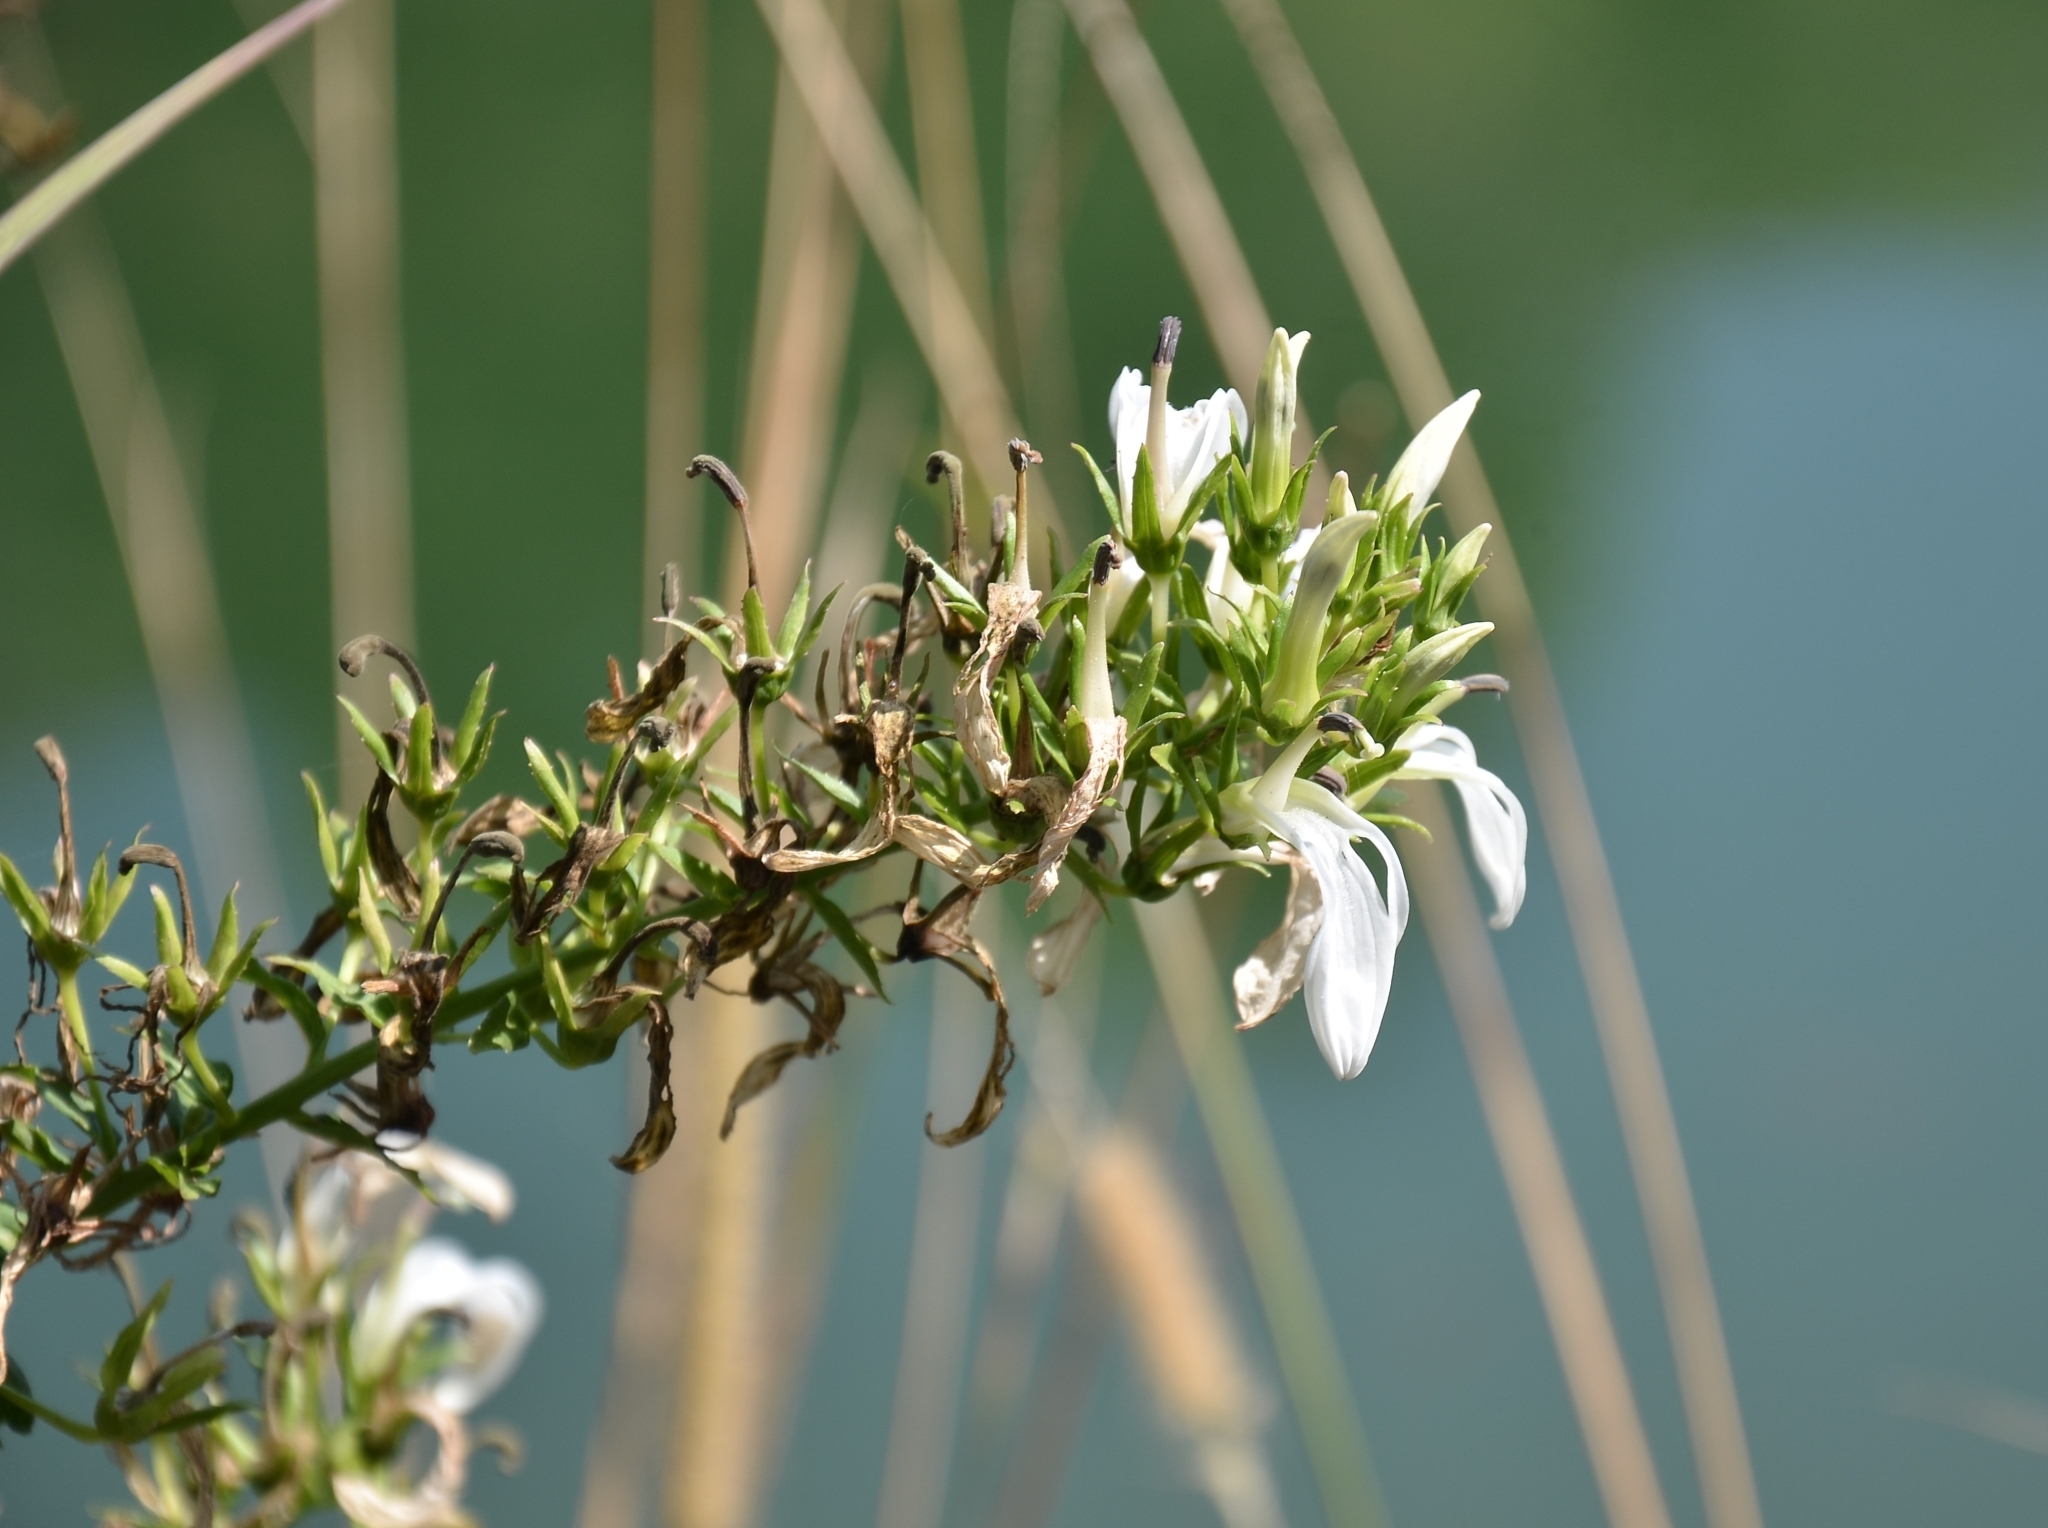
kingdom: Plantae
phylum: Tracheophyta
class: Magnoliopsida
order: Asterales
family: Campanulaceae
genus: Lobelia
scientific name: Lobelia nicotianifolia
